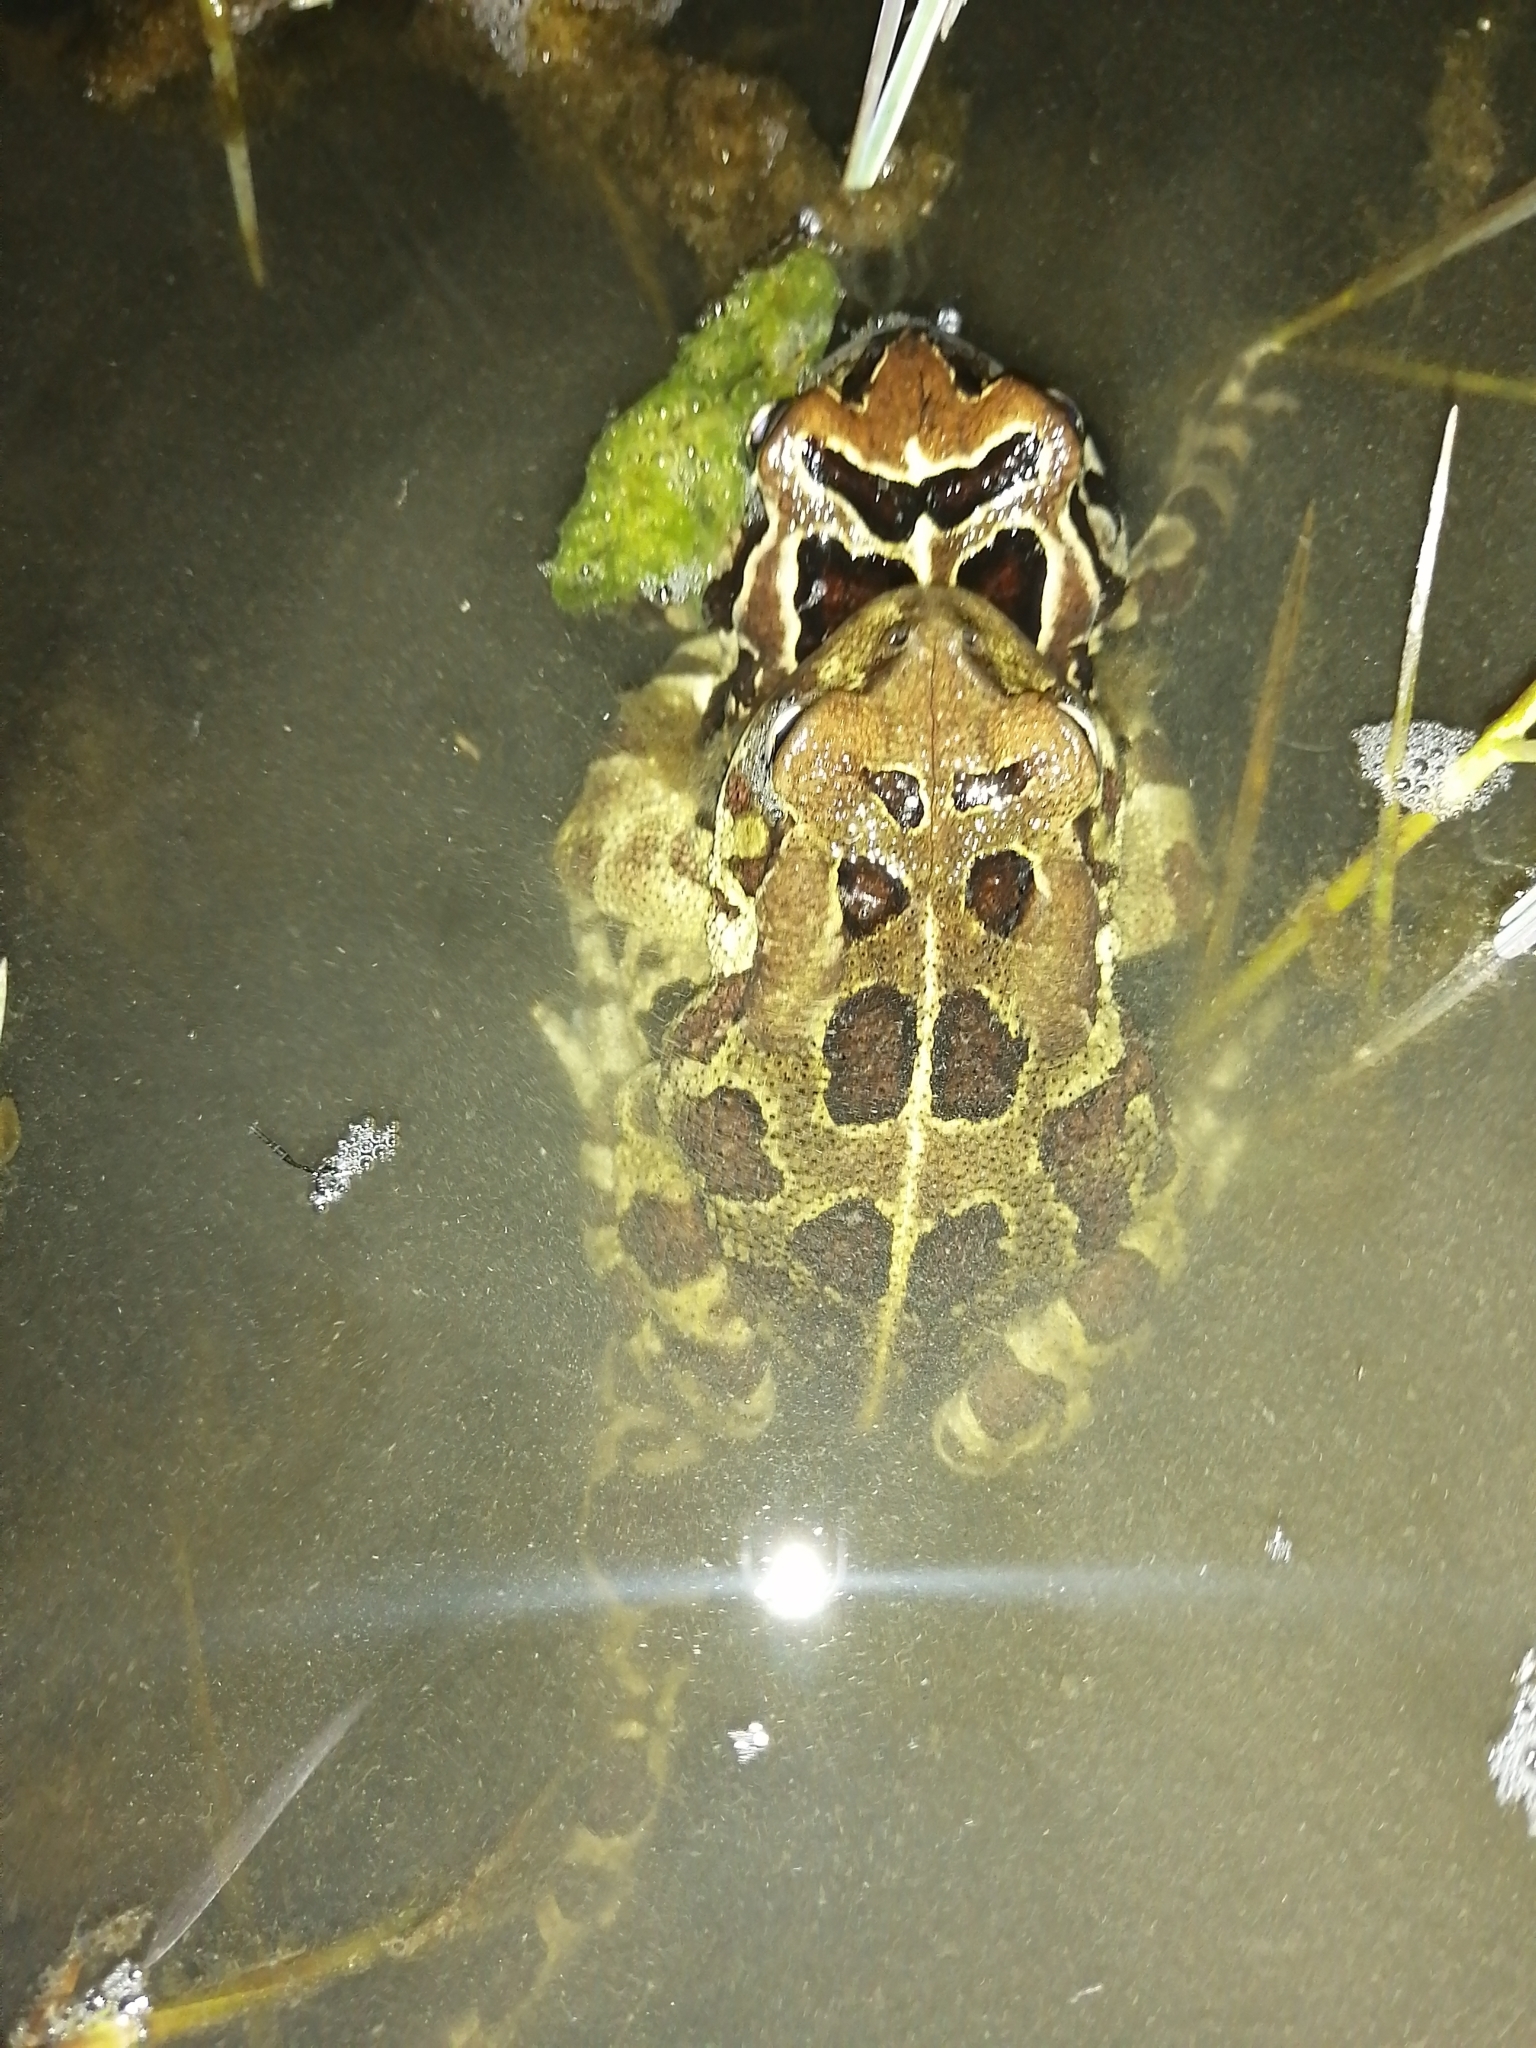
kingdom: Animalia
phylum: Chordata
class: Amphibia
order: Anura
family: Bufonidae
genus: Sclerophrys
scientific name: Sclerophrys pantherina
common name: Panther toad
